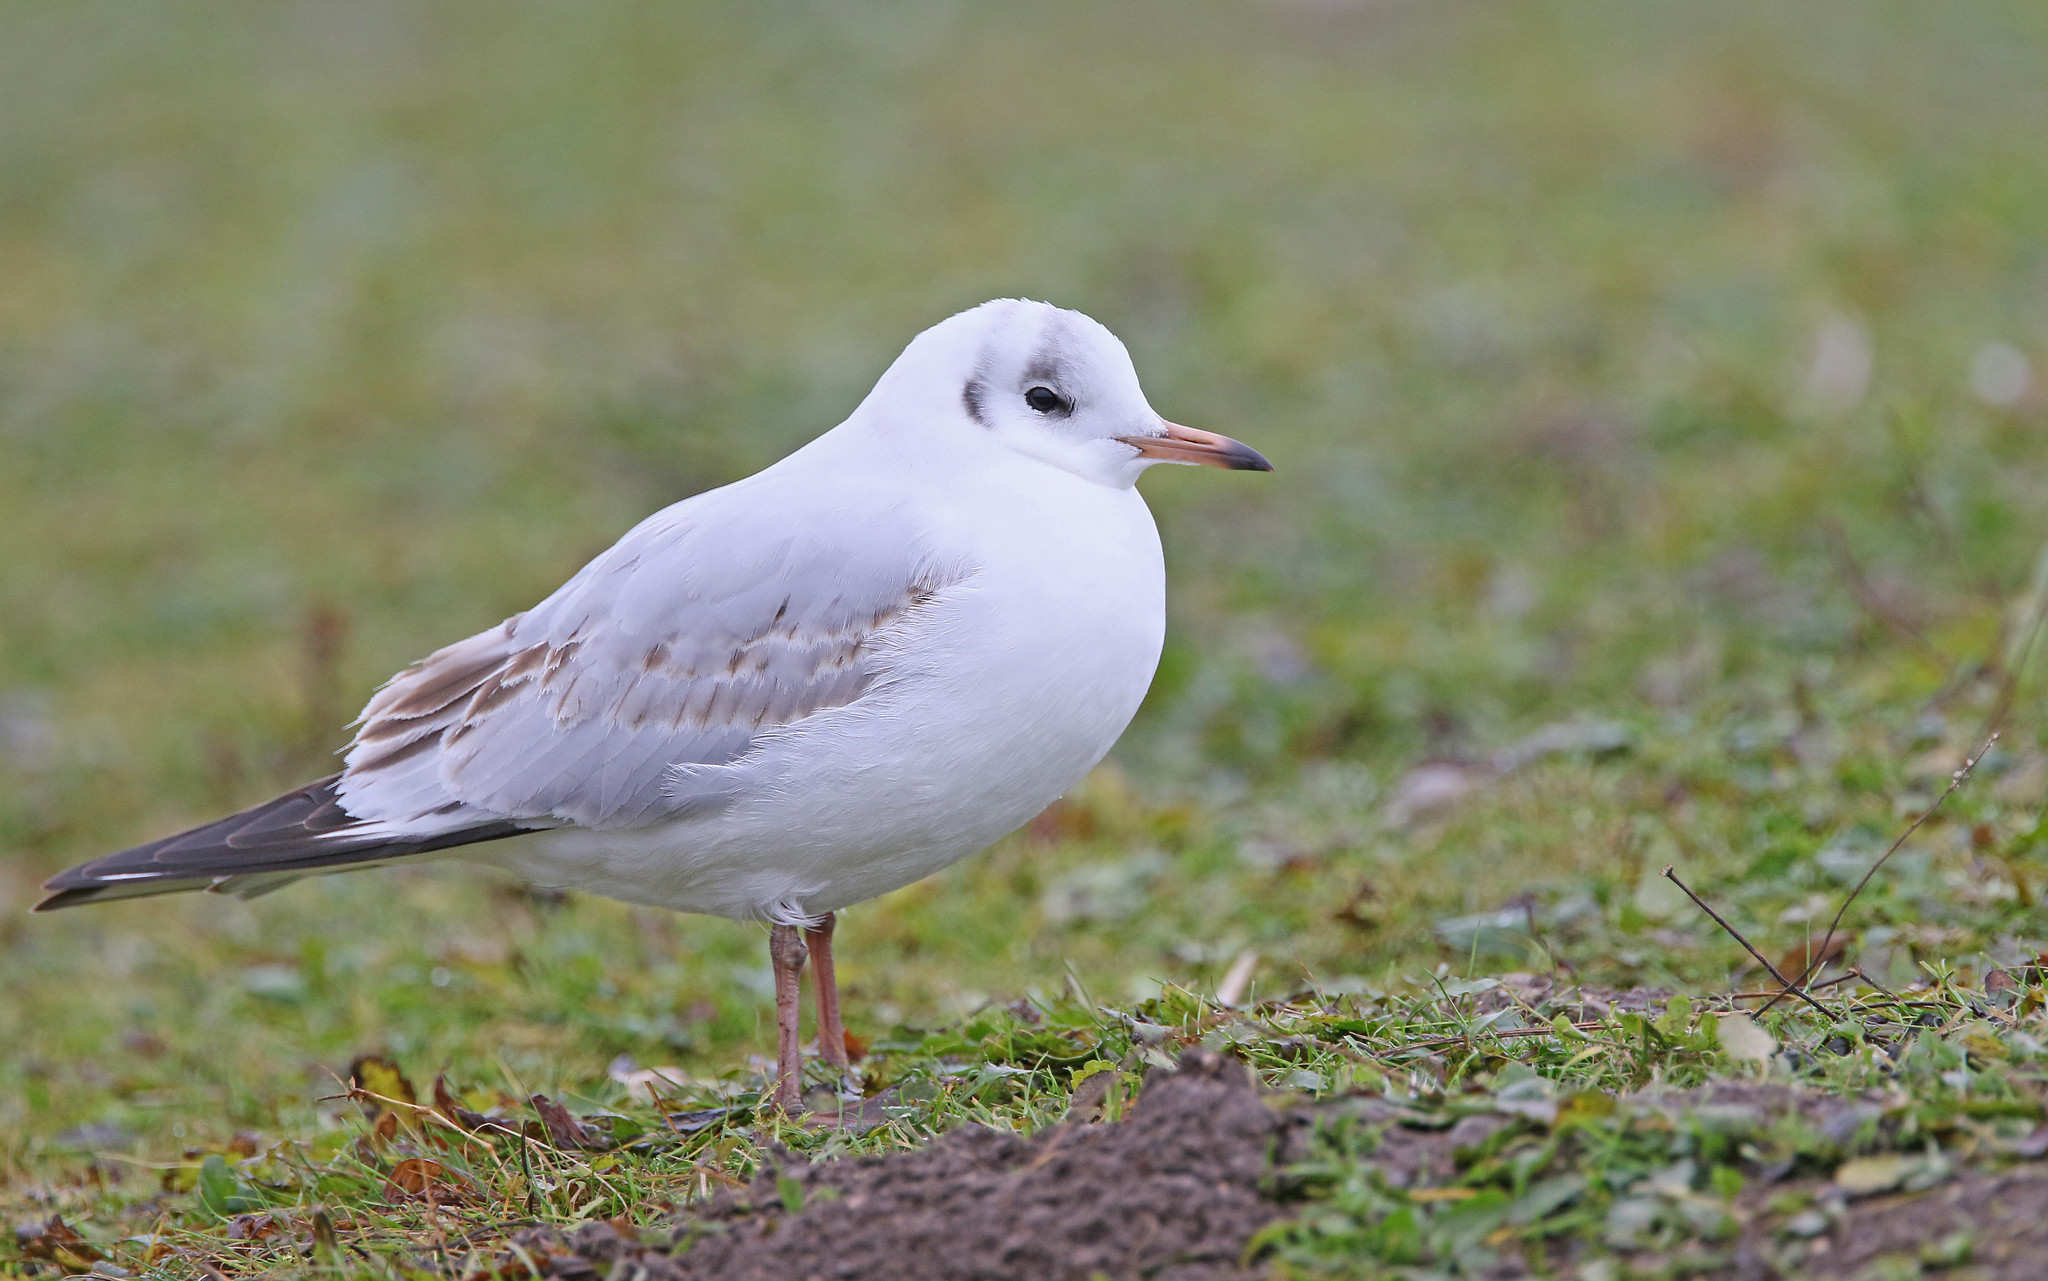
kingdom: Animalia
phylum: Chordata
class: Aves
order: Charadriiformes
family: Laridae
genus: Chroicocephalus
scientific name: Chroicocephalus ridibundus
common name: Black-headed gull
